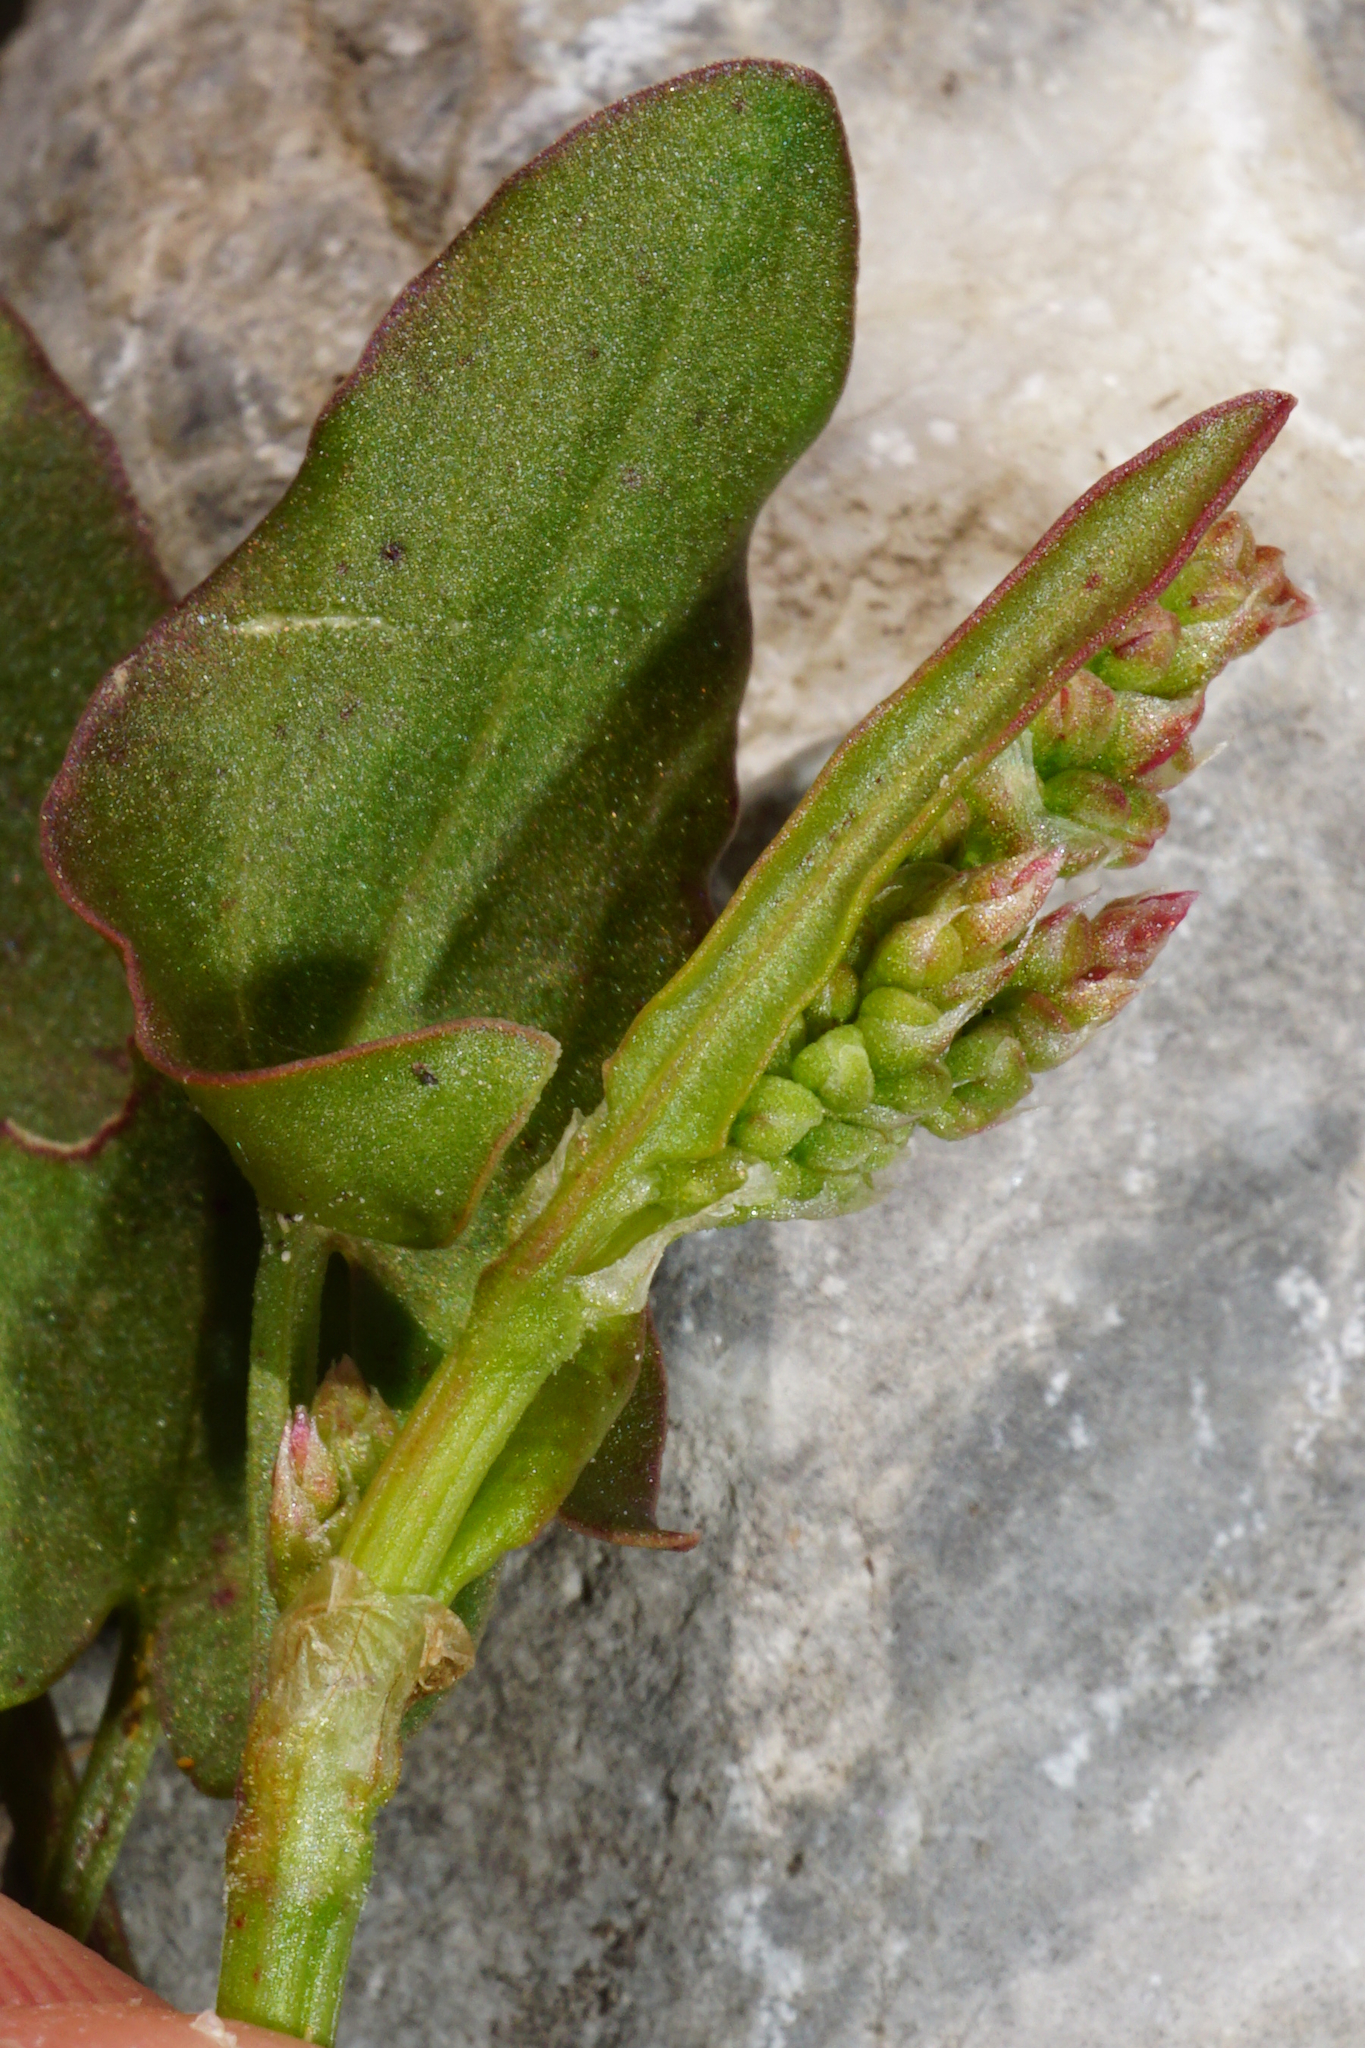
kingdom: Plantae
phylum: Tracheophyta
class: Magnoliopsida
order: Caryophyllales
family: Polygonaceae
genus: Rumex
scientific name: Rumex scutatus
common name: French sorrel
